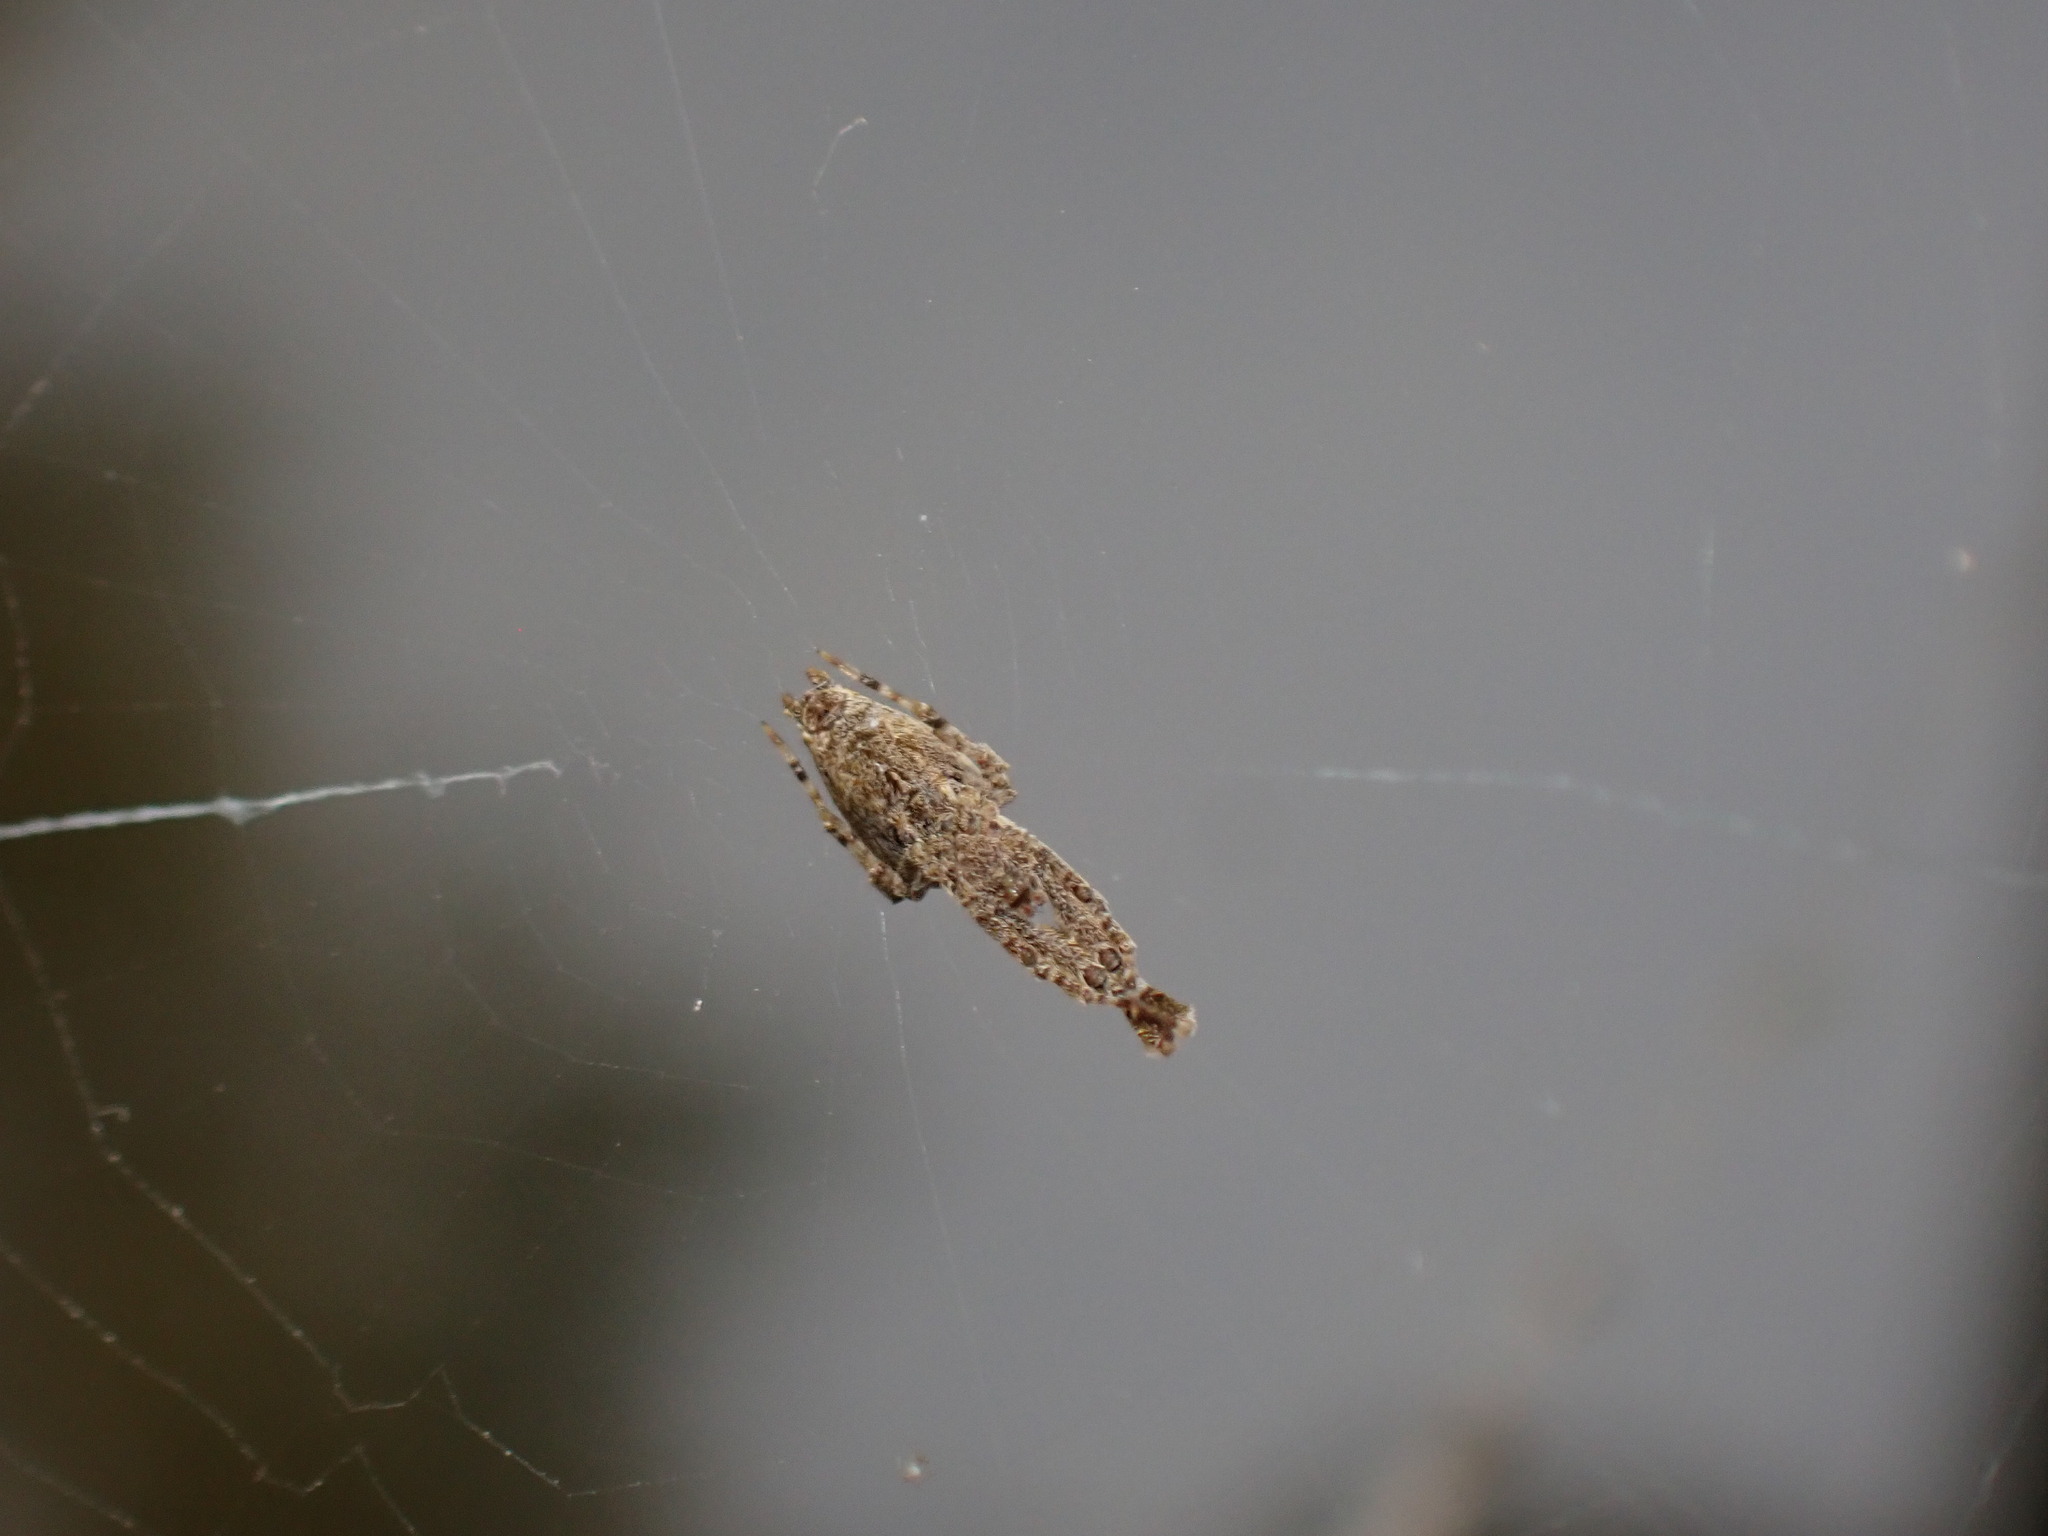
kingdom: Animalia
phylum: Arthropoda
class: Arachnida
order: Araneae
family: Uloboridae
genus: Uloborus
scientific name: Uloborus plumipes
